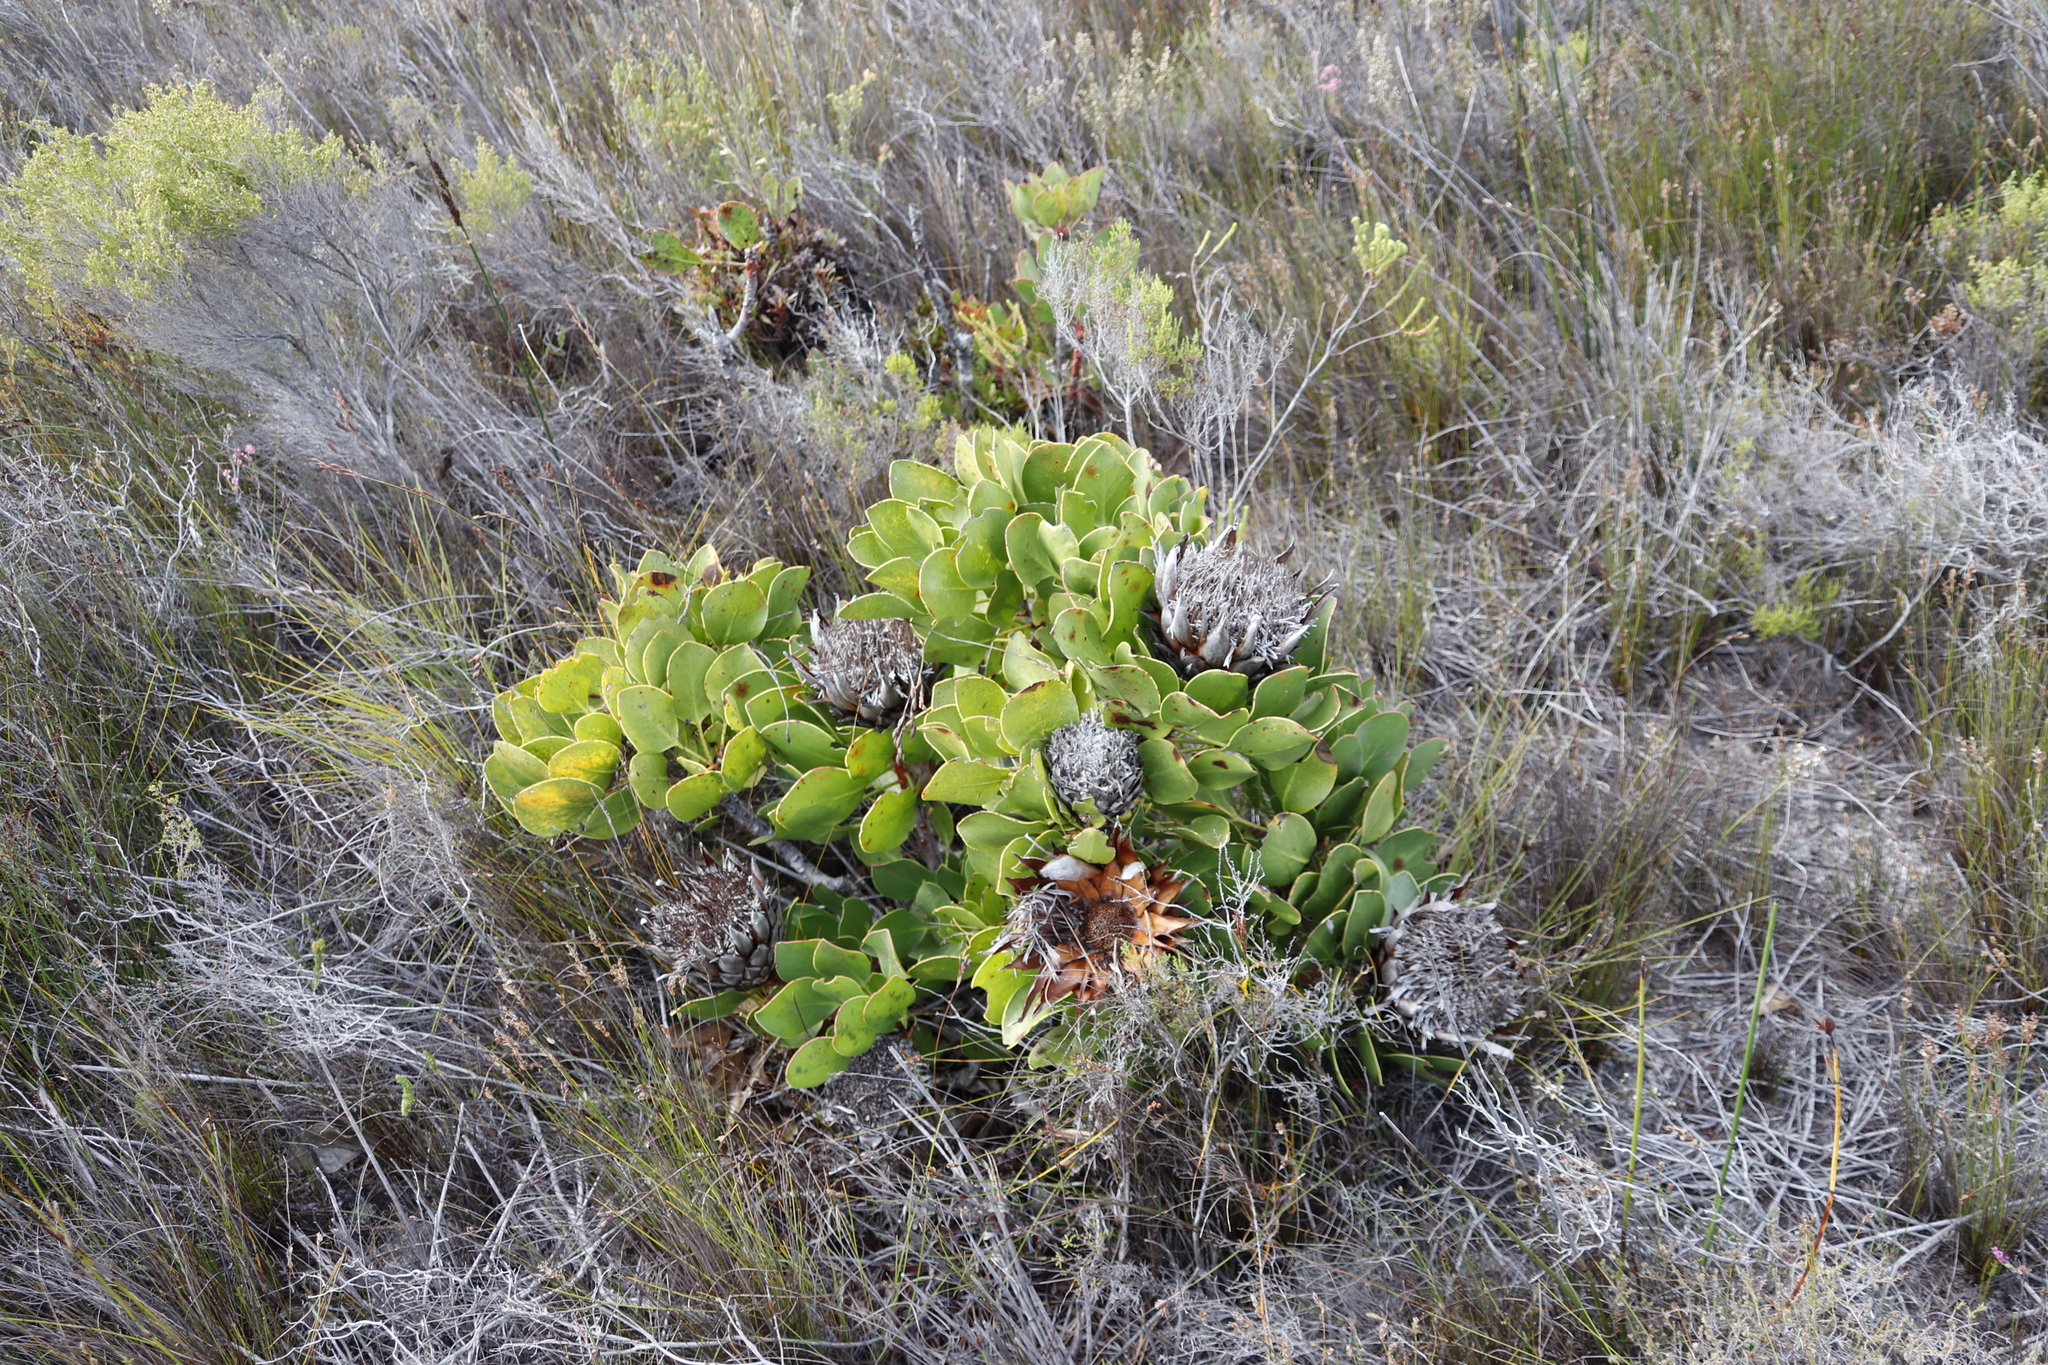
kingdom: Plantae
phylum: Tracheophyta
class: Magnoliopsida
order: Proteales
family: Proteaceae
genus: Protea
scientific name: Protea cynaroides
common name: King protea
